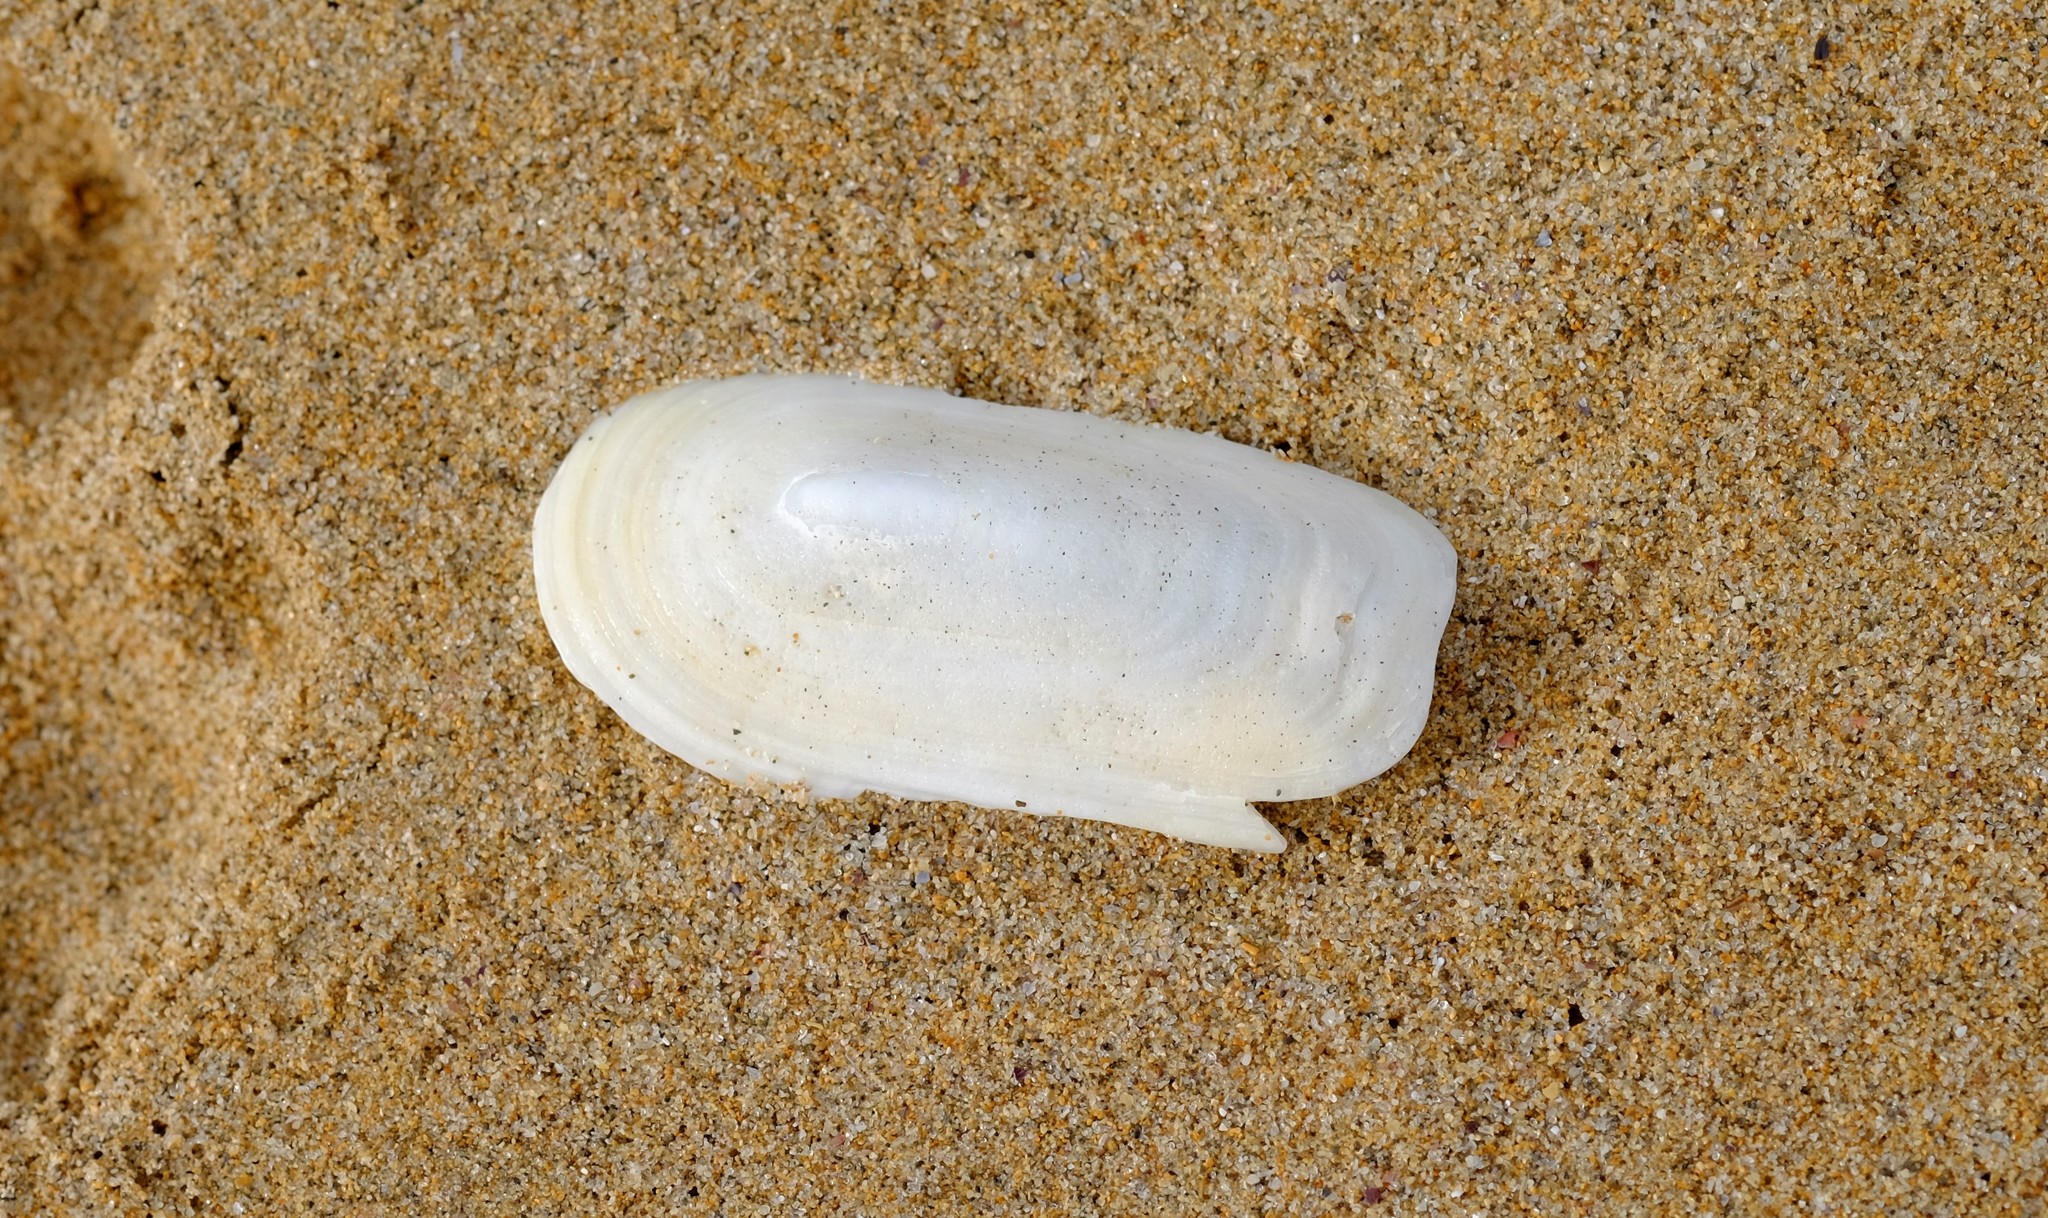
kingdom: Animalia
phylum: Mollusca
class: Gastropoda
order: Lepetellida
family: Fissurellidae
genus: Scutus
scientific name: Scutus antipodes
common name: Duckbill shell
